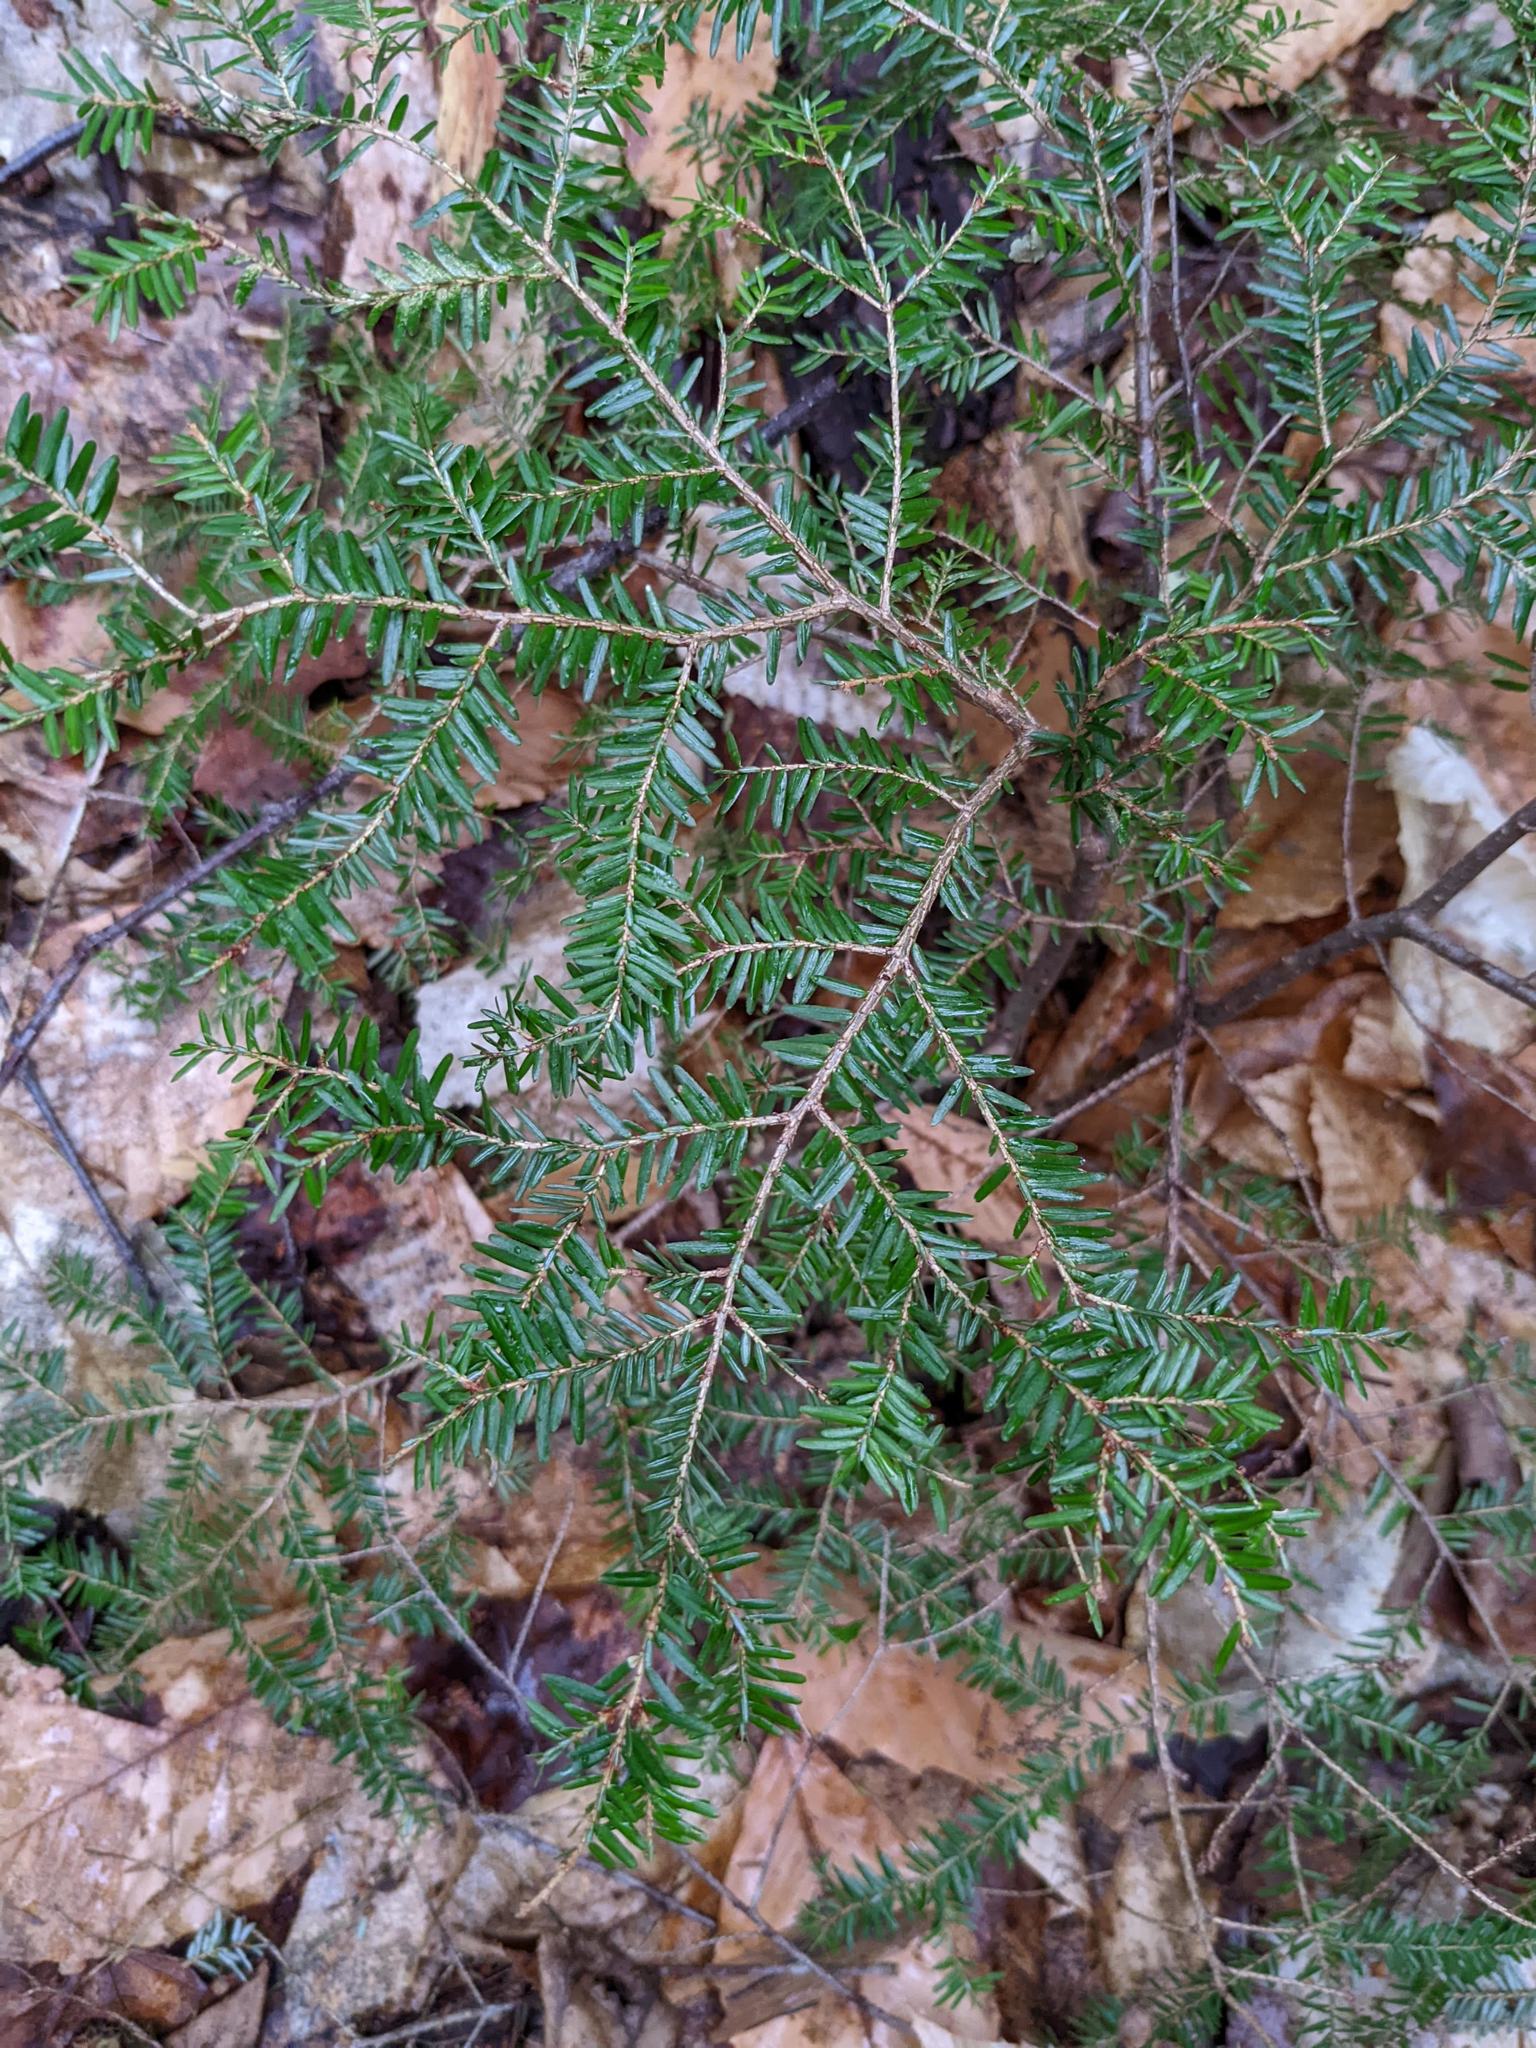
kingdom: Plantae
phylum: Tracheophyta
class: Pinopsida
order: Pinales
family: Pinaceae
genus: Tsuga
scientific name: Tsuga canadensis
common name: Eastern hemlock
